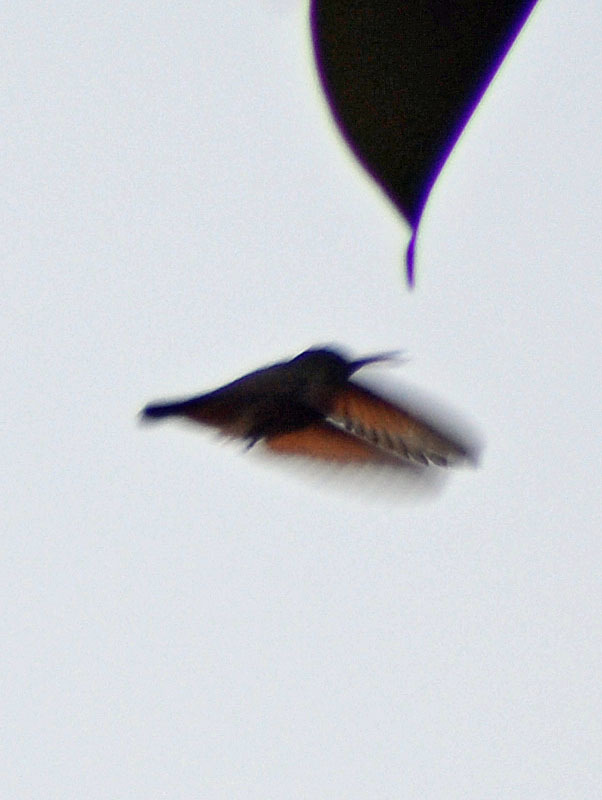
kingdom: Animalia
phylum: Chordata
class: Aves
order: Apodiformes
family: Trochilidae
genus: Saucerottia
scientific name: Saucerottia beryllina
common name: Berylline hummingbird
